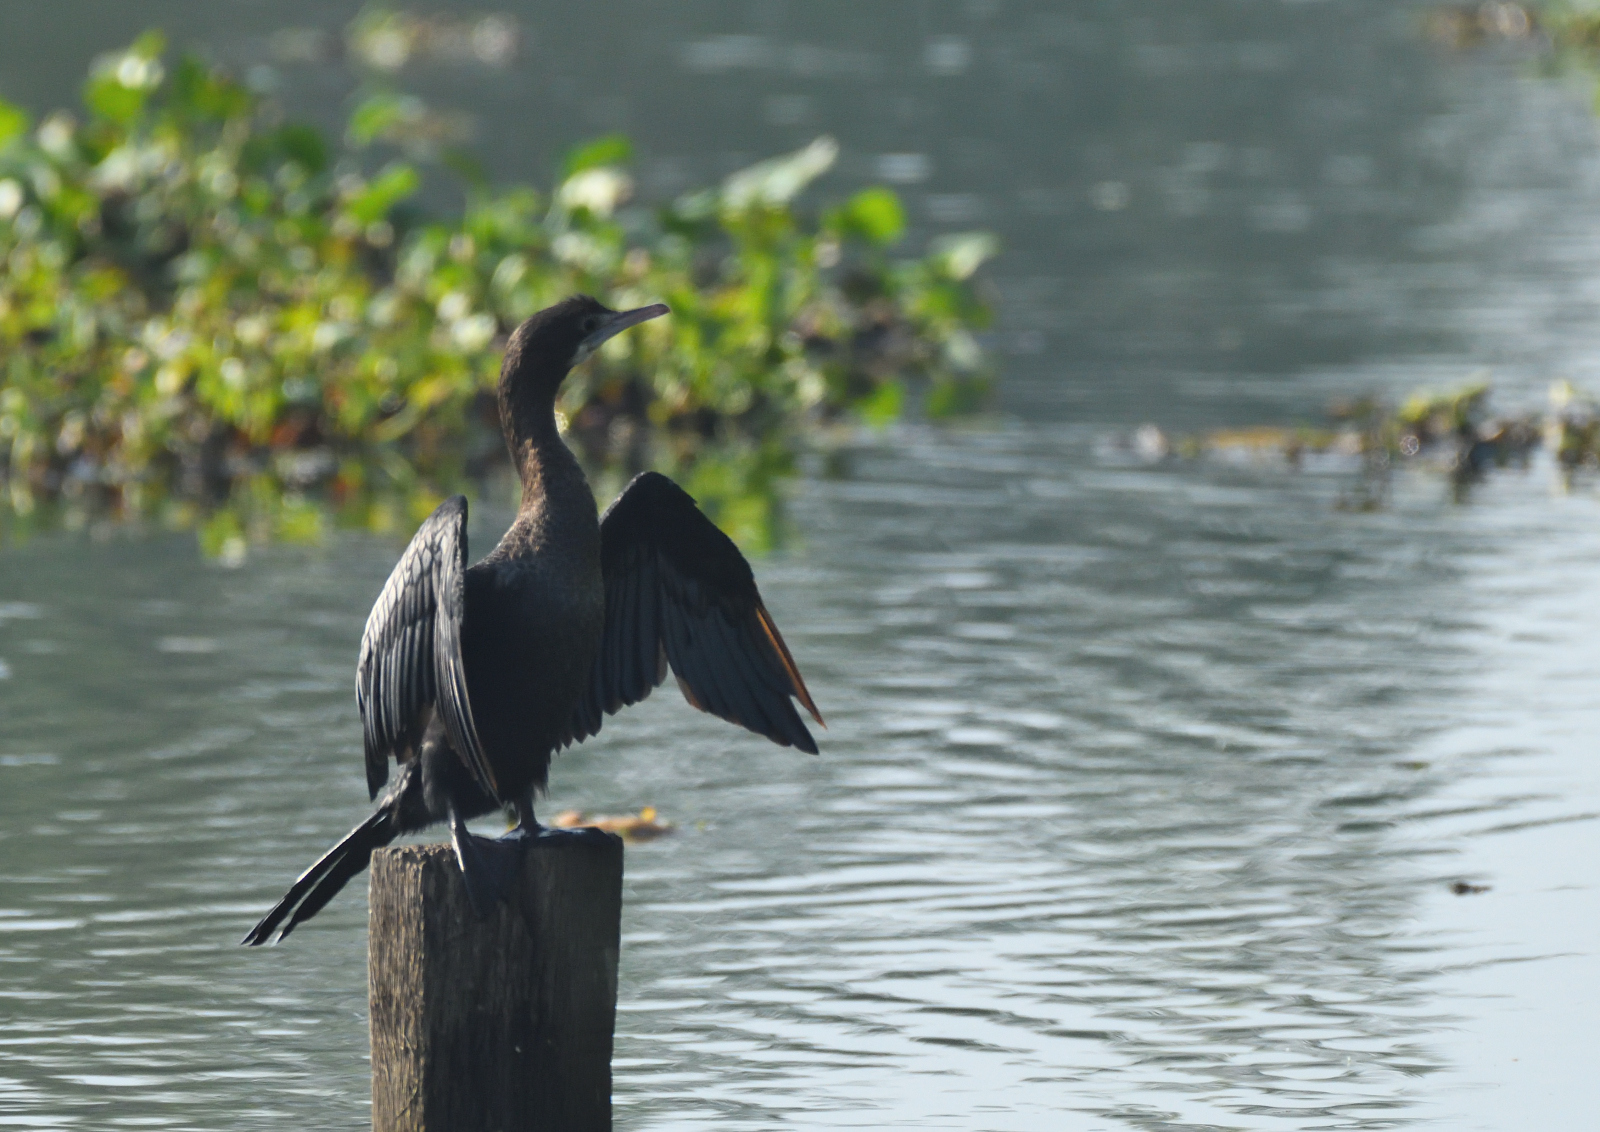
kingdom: Animalia
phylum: Chordata
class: Aves
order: Suliformes
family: Phalacrocoracidae
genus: Microcarbo
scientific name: Microcarbo niger
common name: Little cormorant
